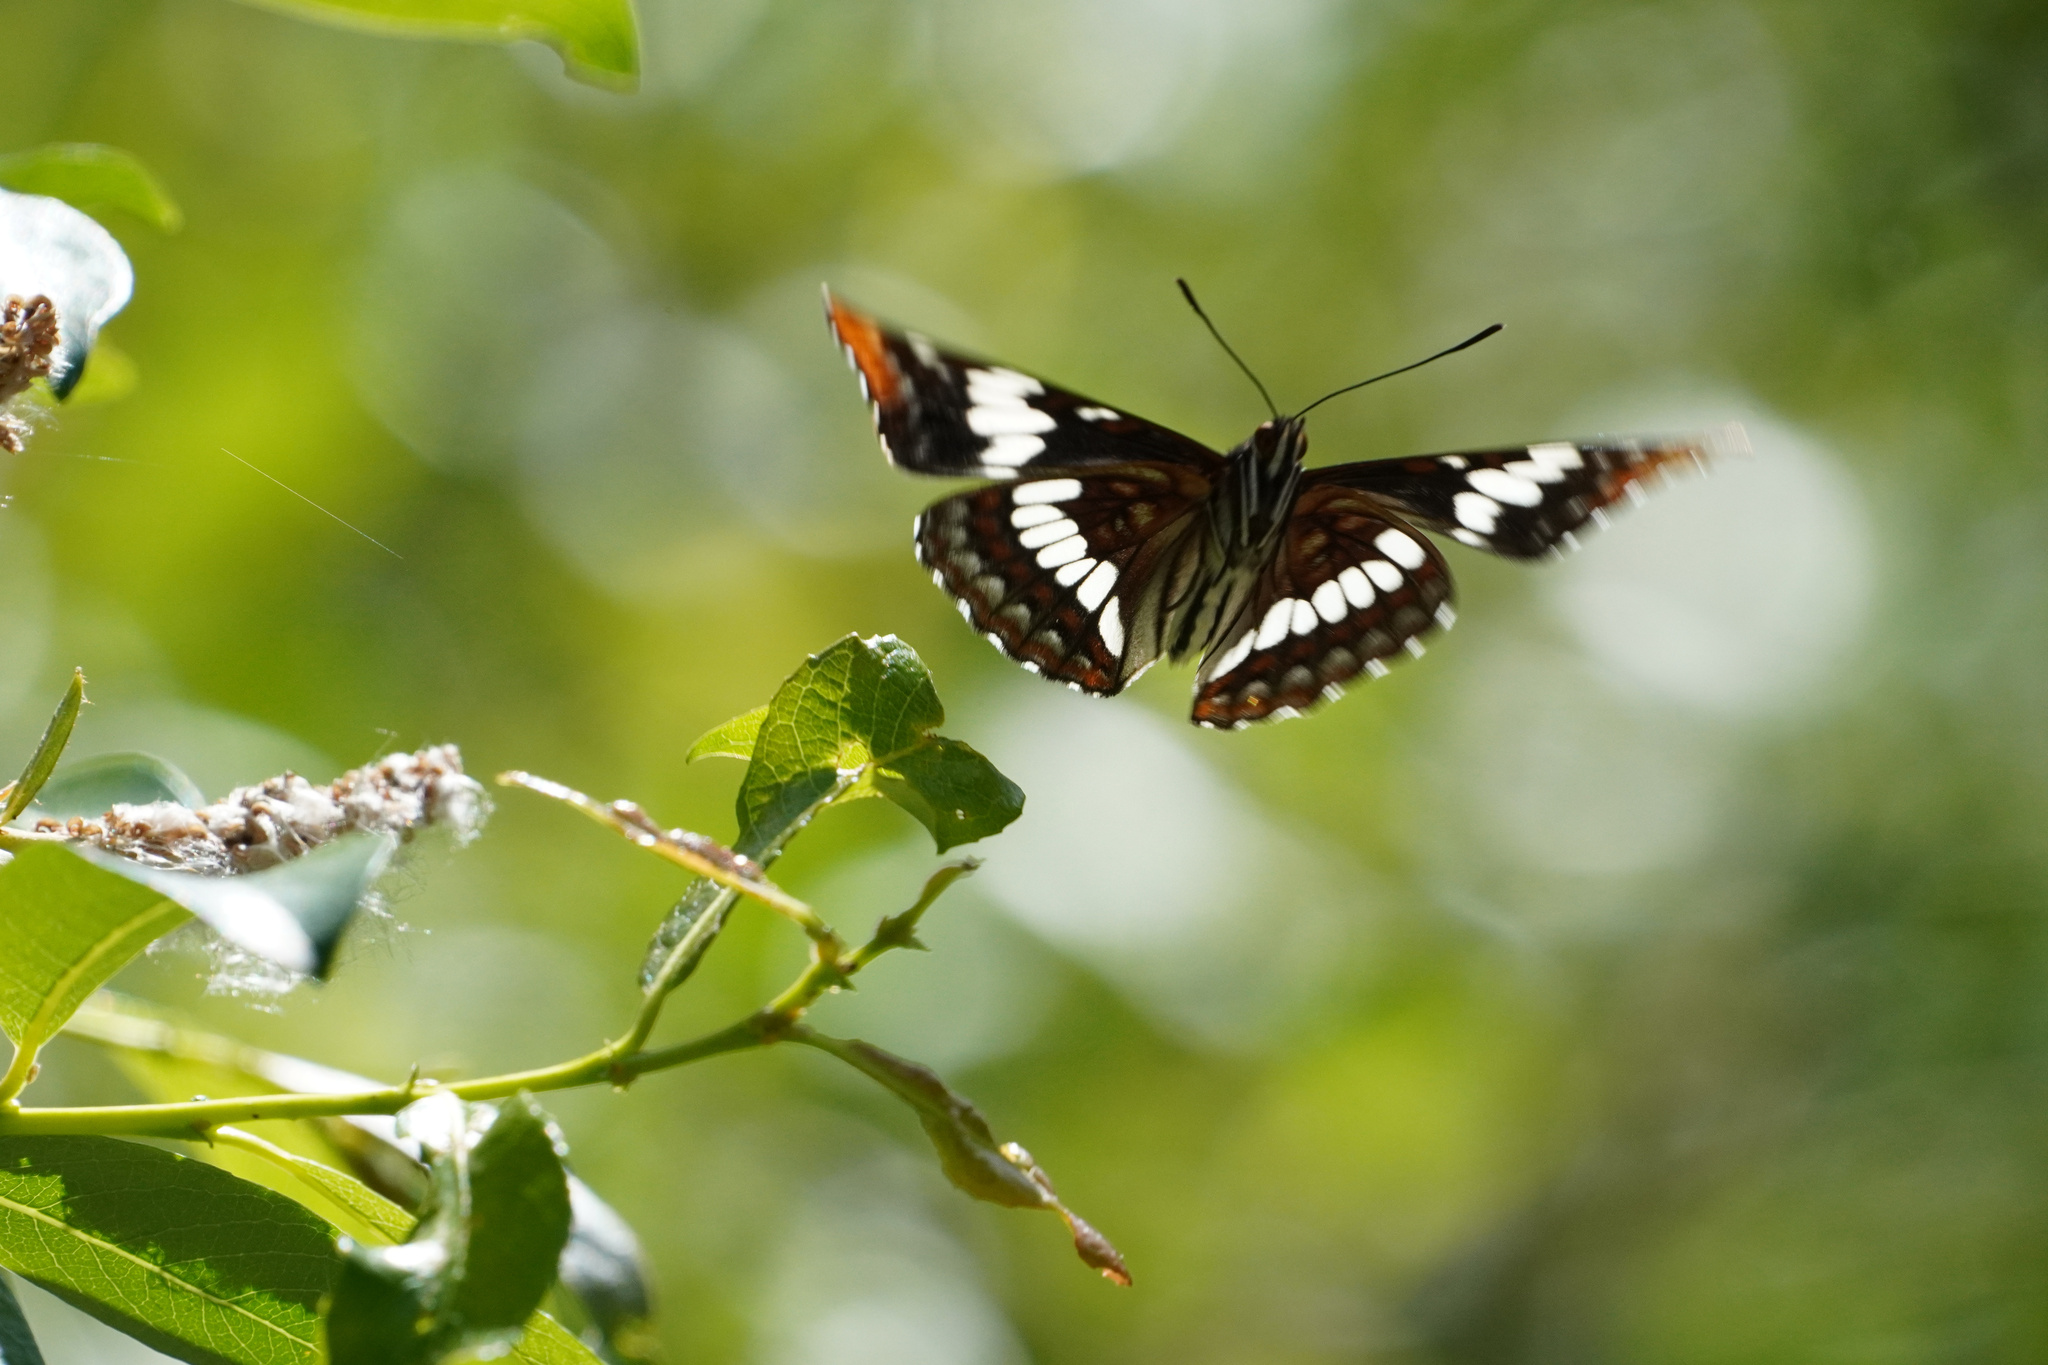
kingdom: Animalia
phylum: Arthropoda
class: Insecta
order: Lepidoptera
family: Nymphalidae
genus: Limenitis
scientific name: Limenitis lorquini
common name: Lorquin's admiral
